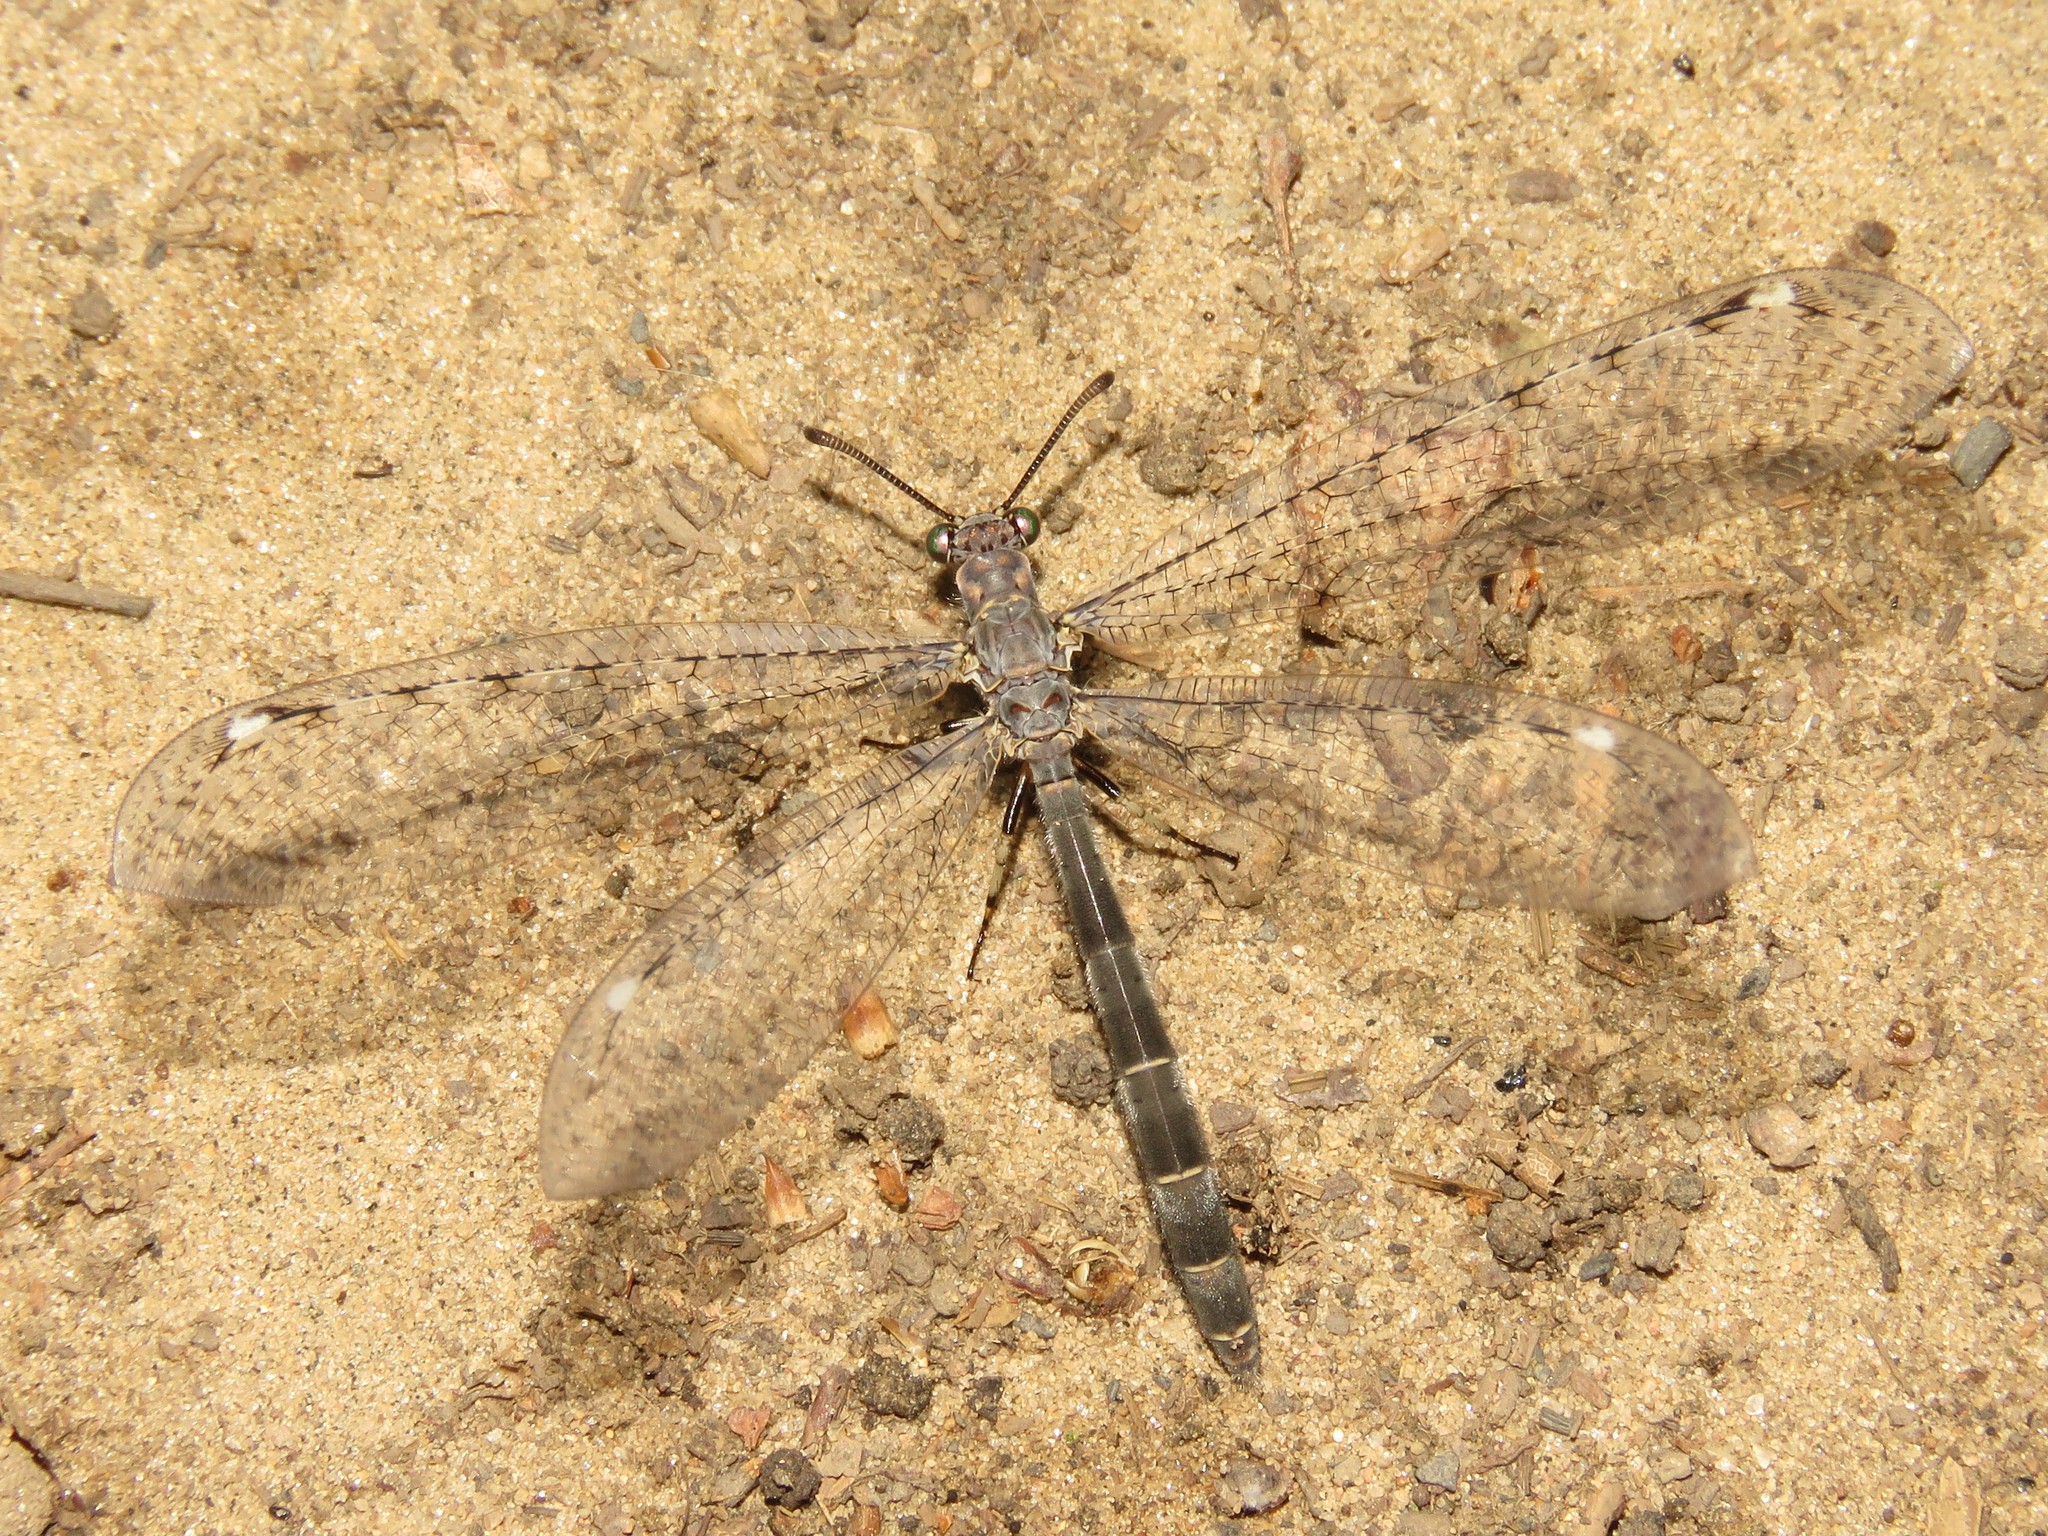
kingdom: Animalia
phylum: Arthropoda
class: Insecta
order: Neuroptera
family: Myrmeleontidae
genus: Myrmeleon
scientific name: Myrmeleon immaculatus
